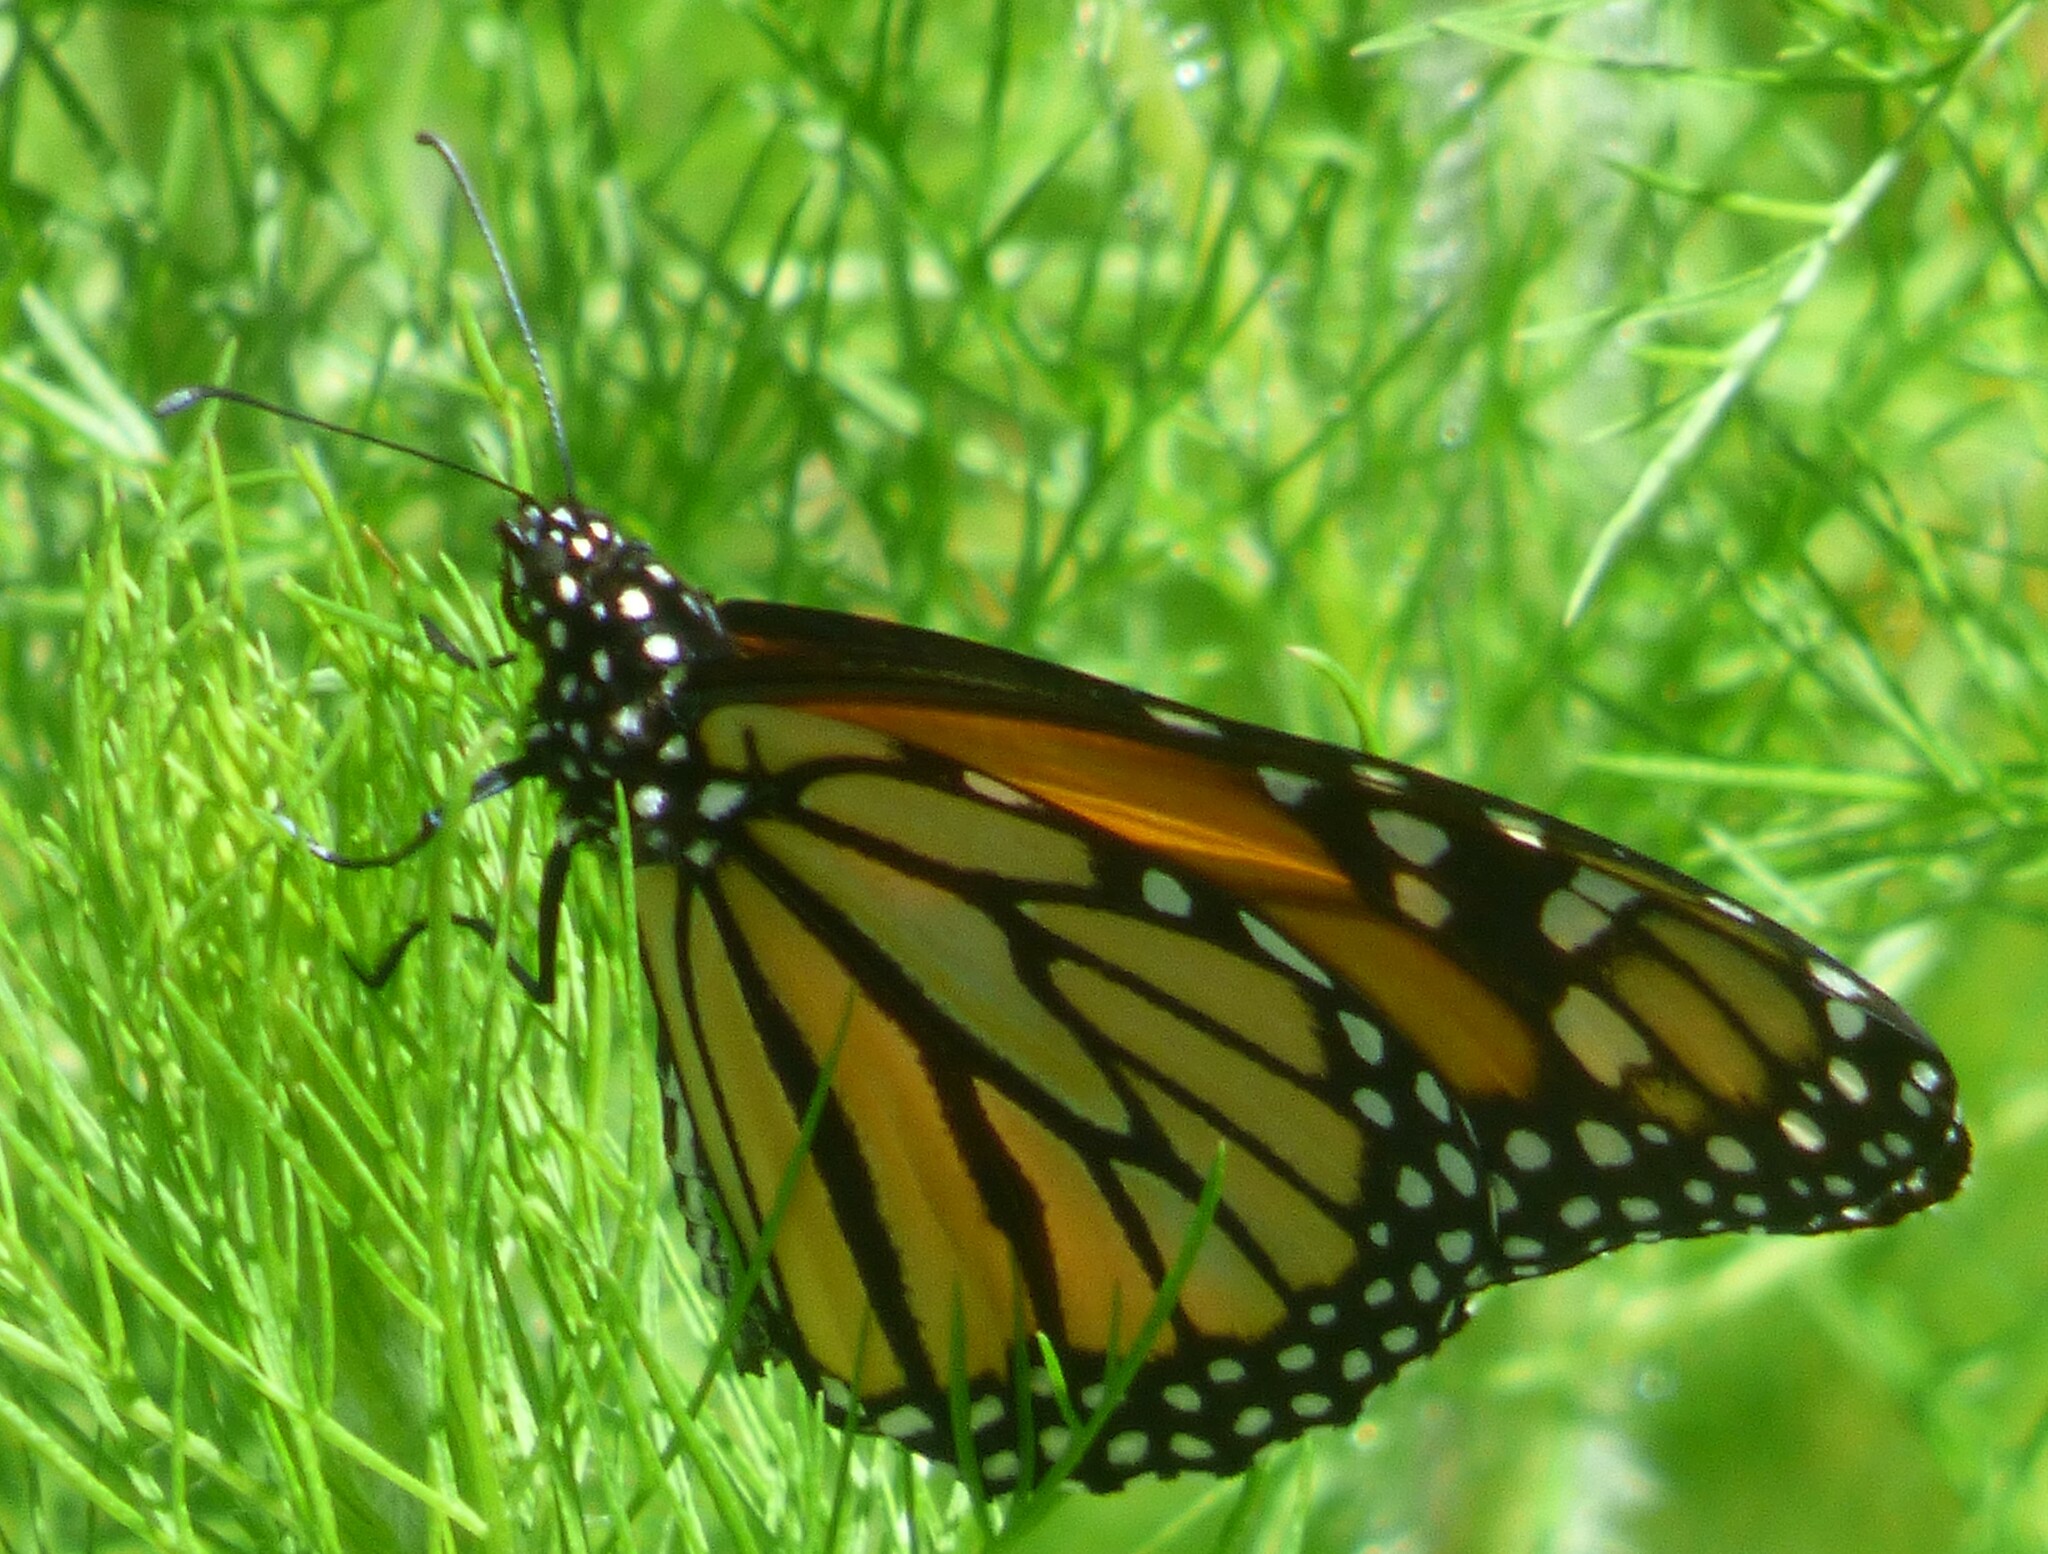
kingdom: Animalia
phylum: Arthropoda
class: Insecta
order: Lepidoptera
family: Nymphalidae
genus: Danaus
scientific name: Danaus plexippus
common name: Monarch
